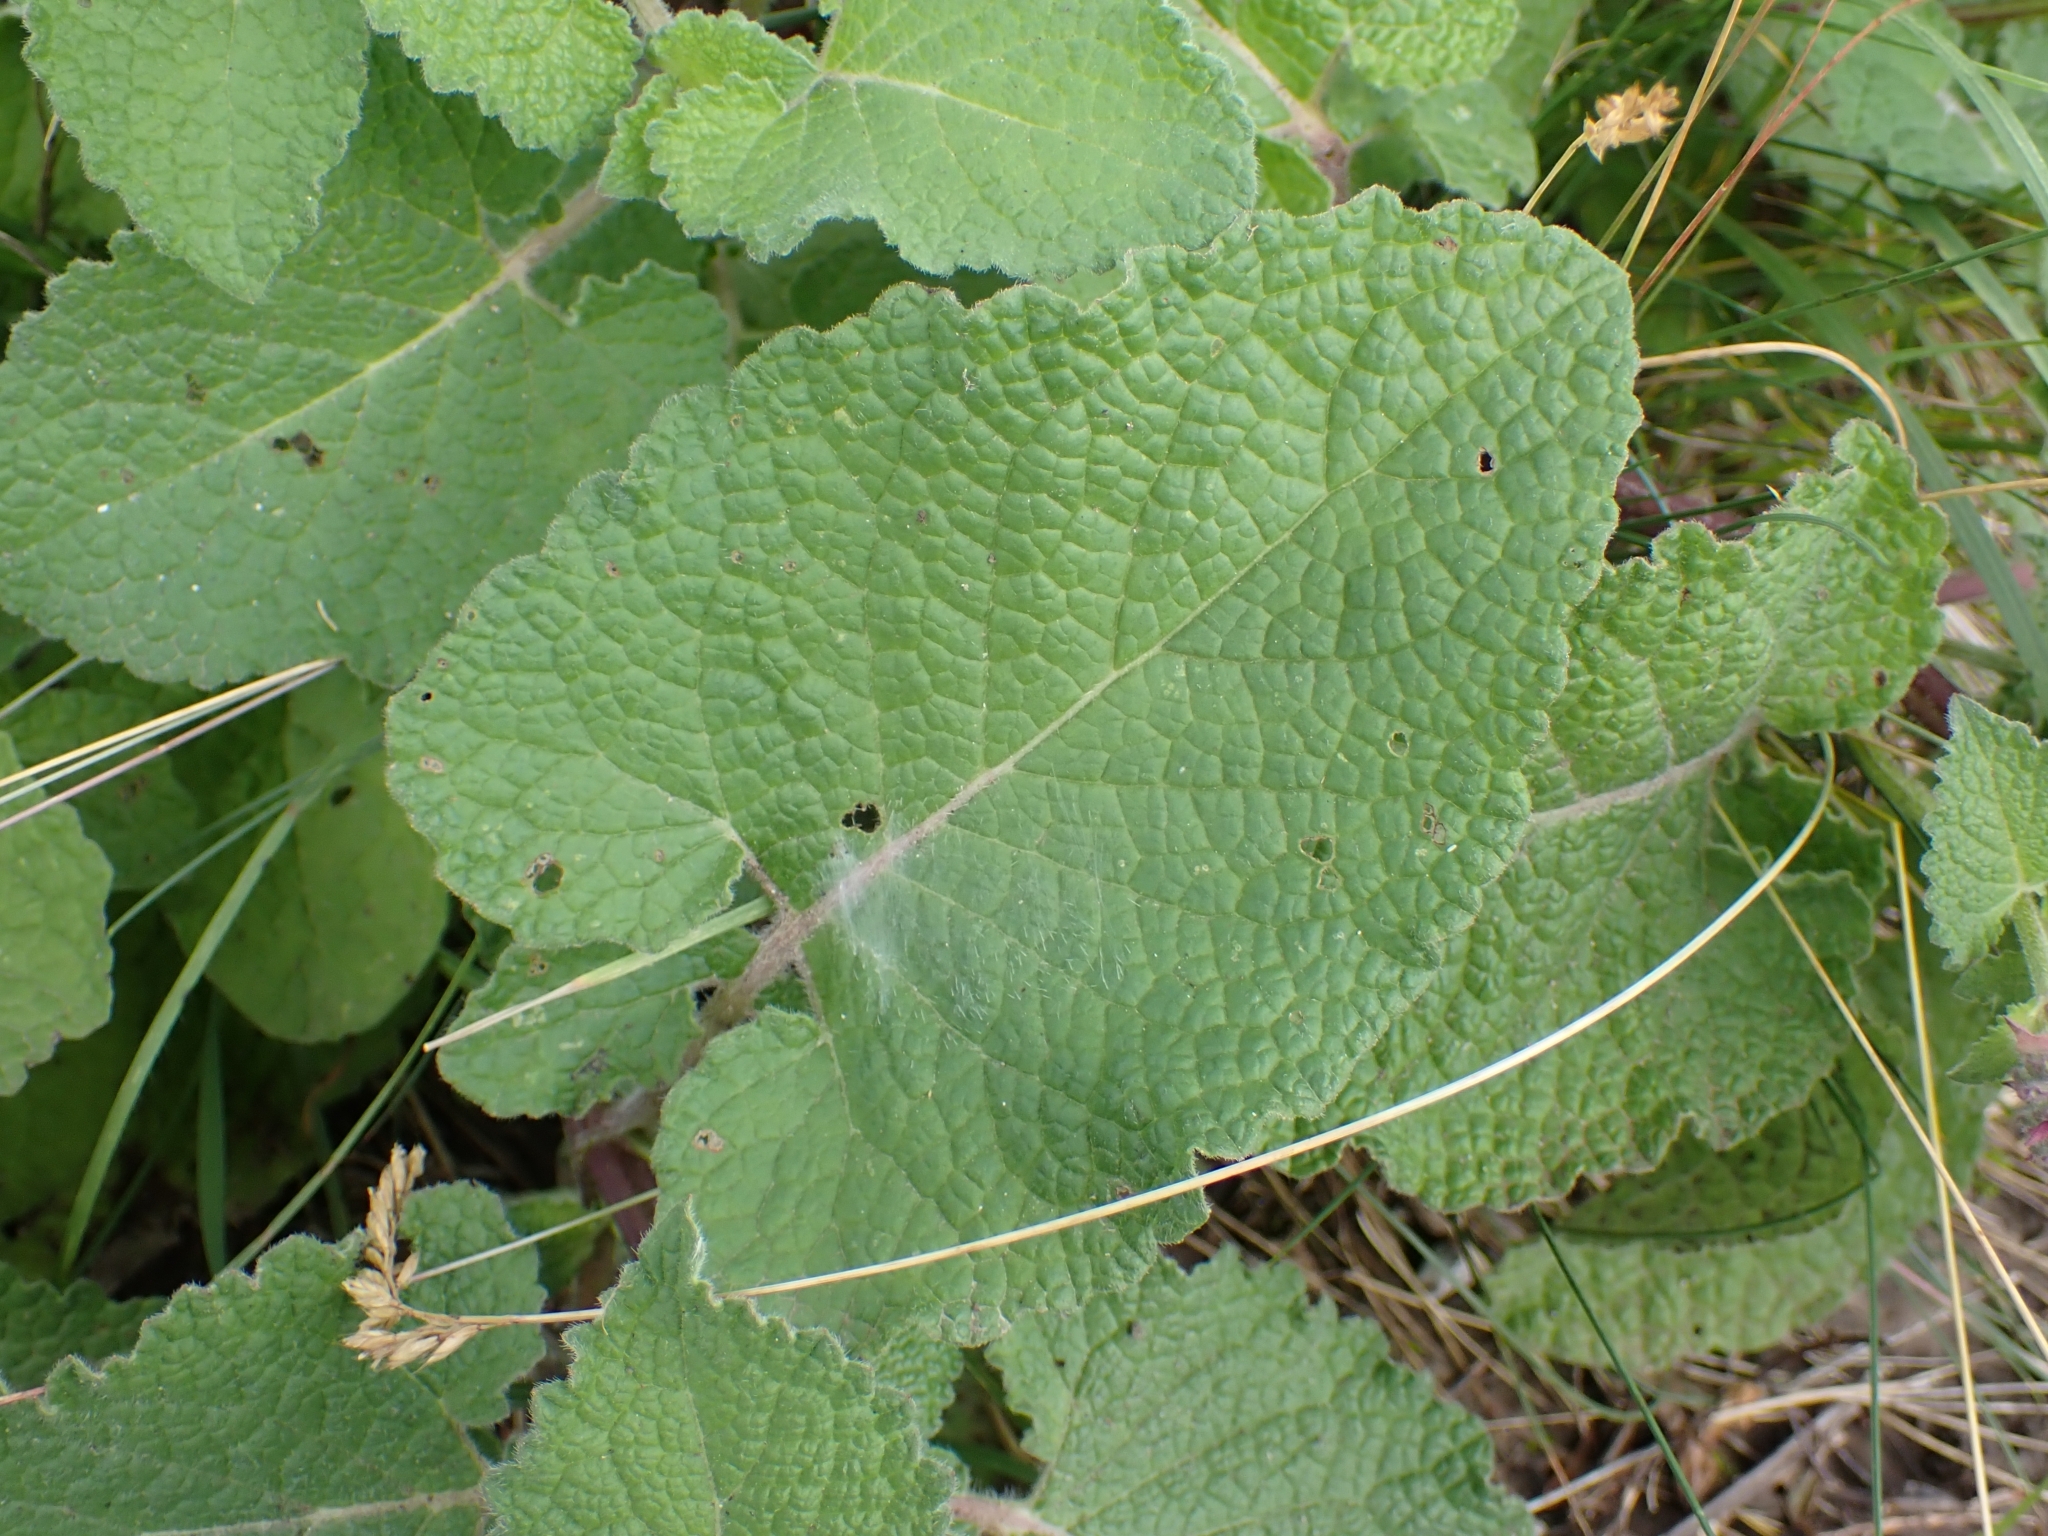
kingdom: Plantae
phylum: Tracheophyta
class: Magnoliopsida
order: Lamiales
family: Lamiaceae
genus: Salvia
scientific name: Salvia verticillata
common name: Whorled clary
